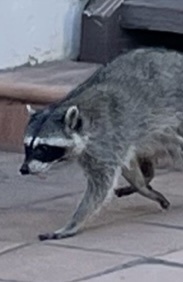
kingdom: Animalia
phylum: Chordata
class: Mammalia
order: Carnivora
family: Procyonidae
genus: Procyon
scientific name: Procyon lotor
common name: Raccoon
